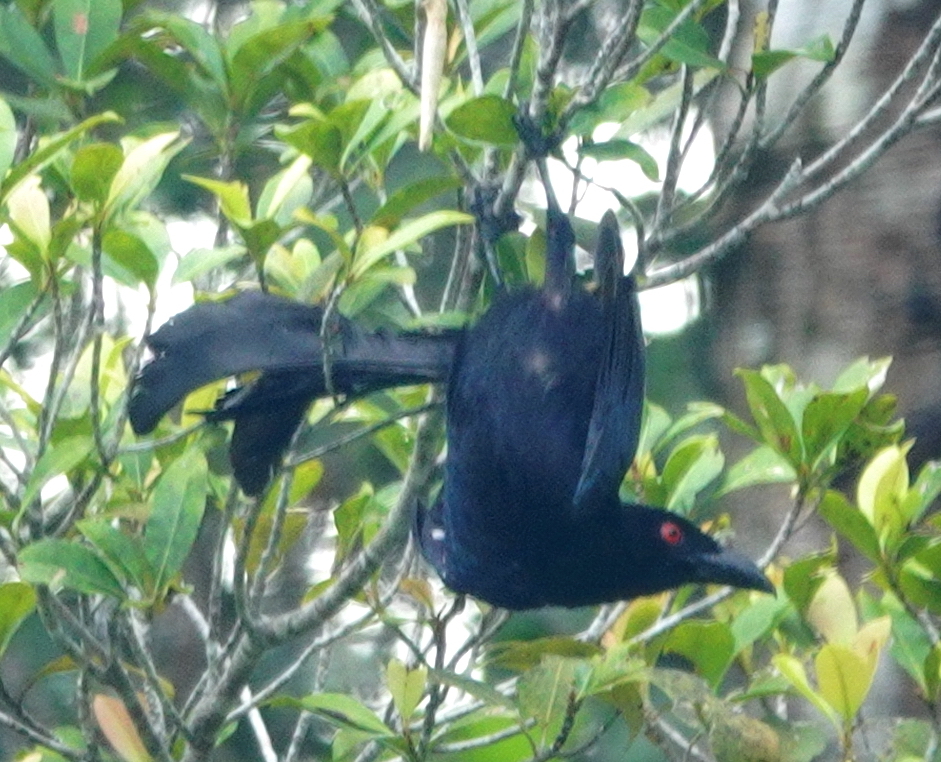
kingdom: Animalia
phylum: Chordata
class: Aves
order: Passeriformes
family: Dicruridae
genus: Dicrurus
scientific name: Dicrurus densus
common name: Wallacean drongo
